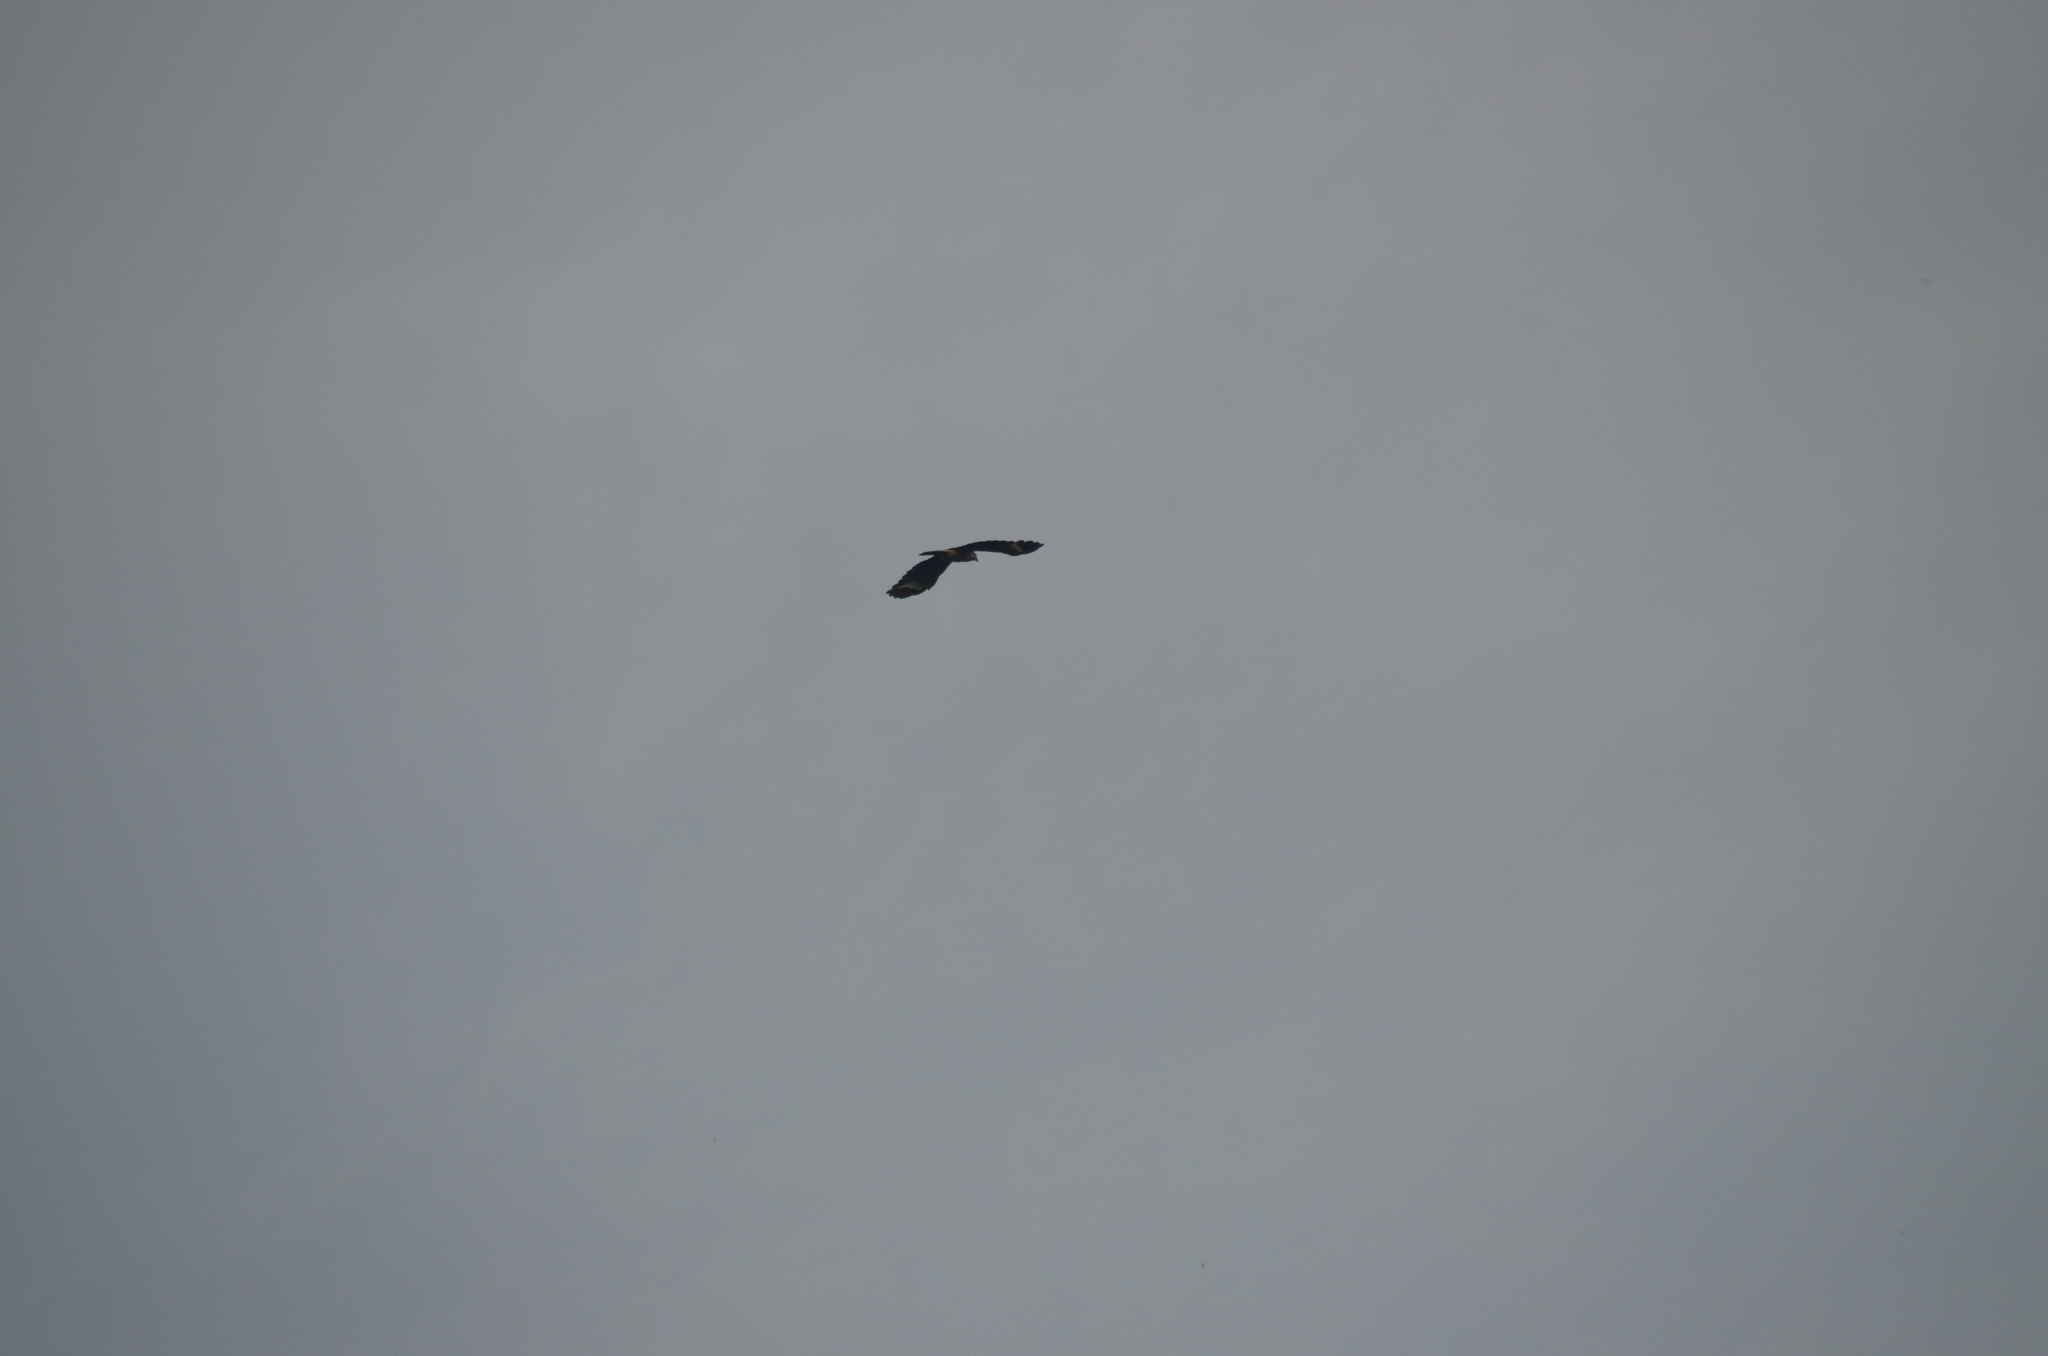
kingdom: Animalia
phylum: Chordata
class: Aves
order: Falconiformes
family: Falconidae
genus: Daptrius
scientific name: Daptrius
